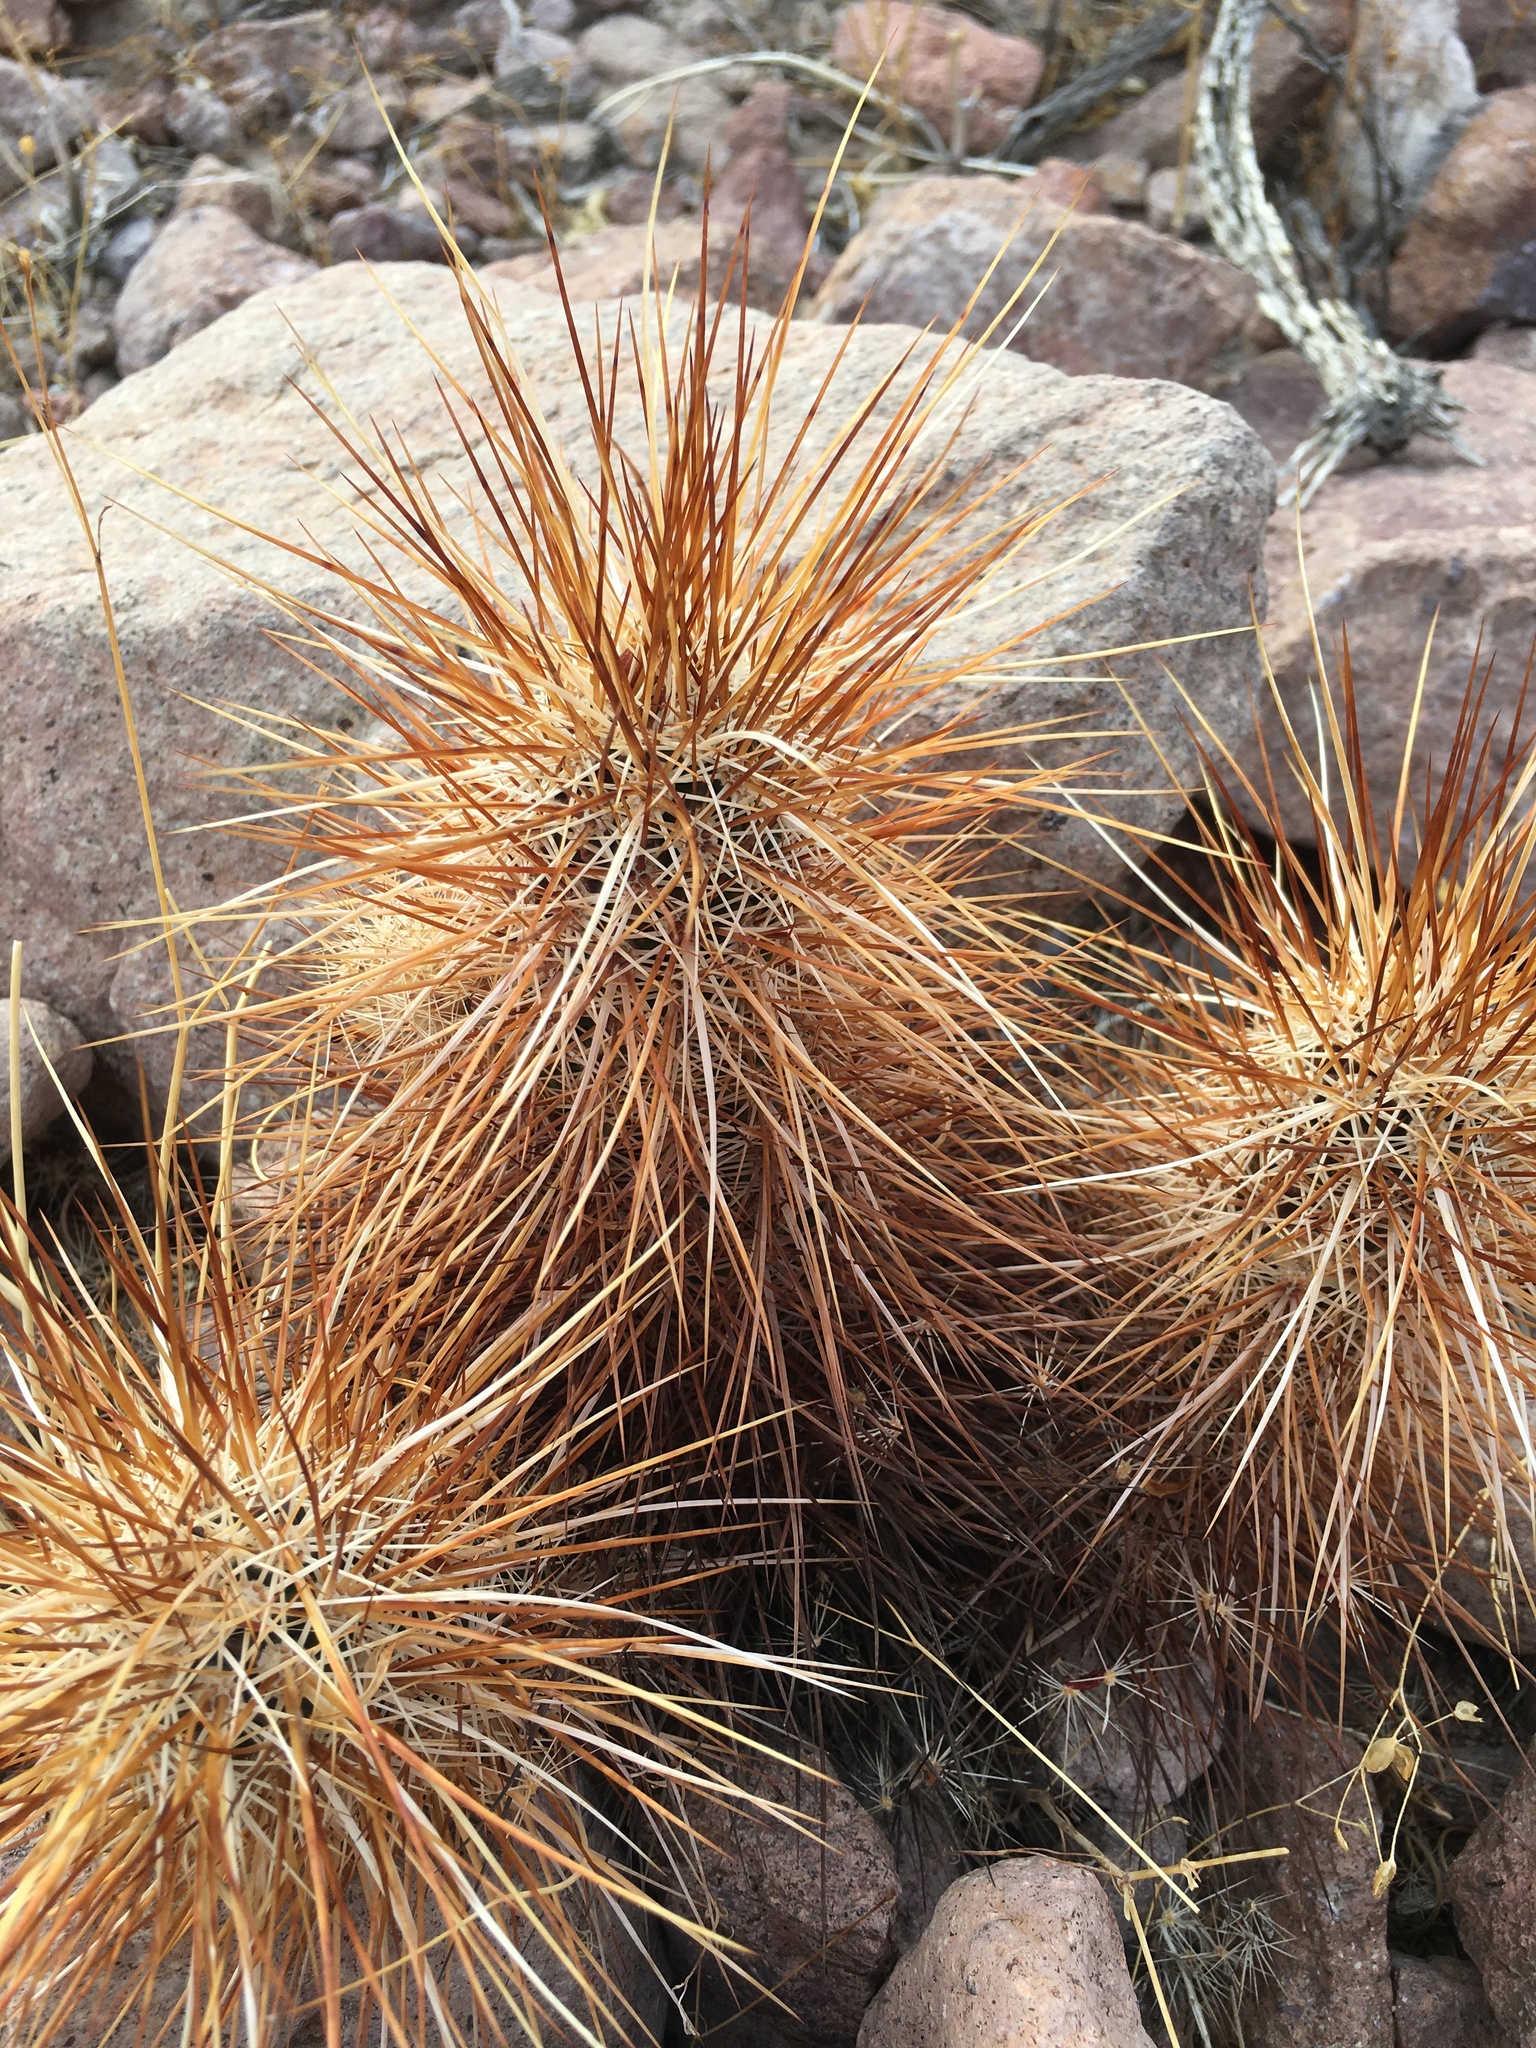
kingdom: Plantae
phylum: Tracheophyta
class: Magnoliopsida
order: Caryophyllales
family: Cactaceae
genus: Echinocereus
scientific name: Echinocereus engelmannii
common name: Engelmann's hedgehog cactus
